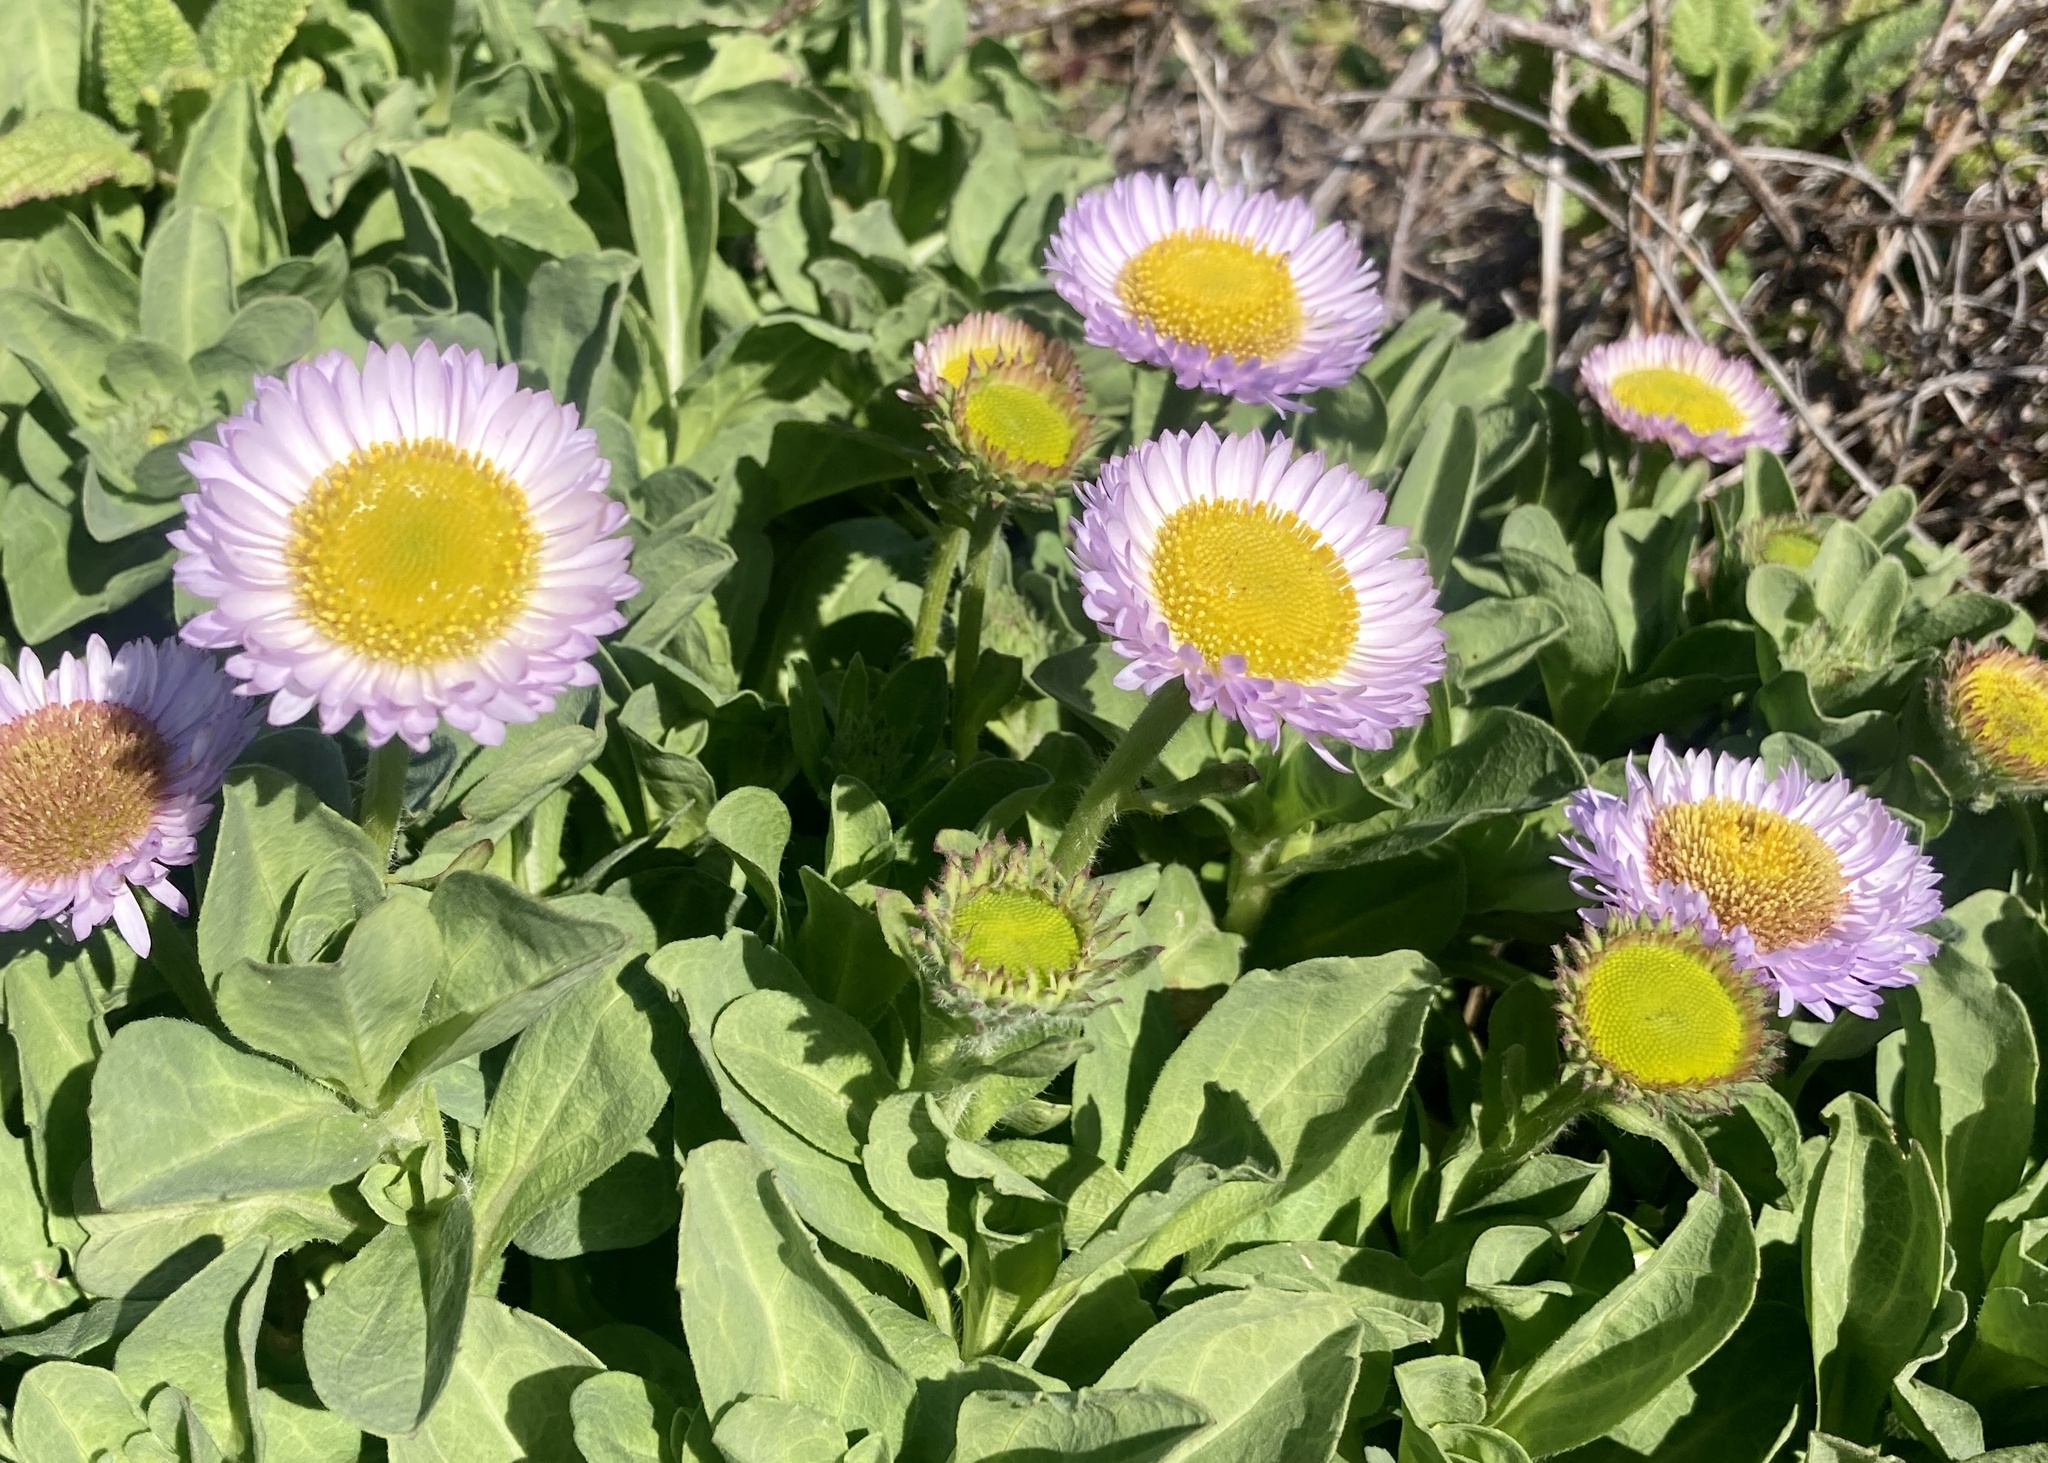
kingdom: Plantae
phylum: Tracheophyta
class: Magnoliopsida
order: Asterales
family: Asteraceae
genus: Erigeron
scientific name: Erigeron glaucus
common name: Seaside daisy
